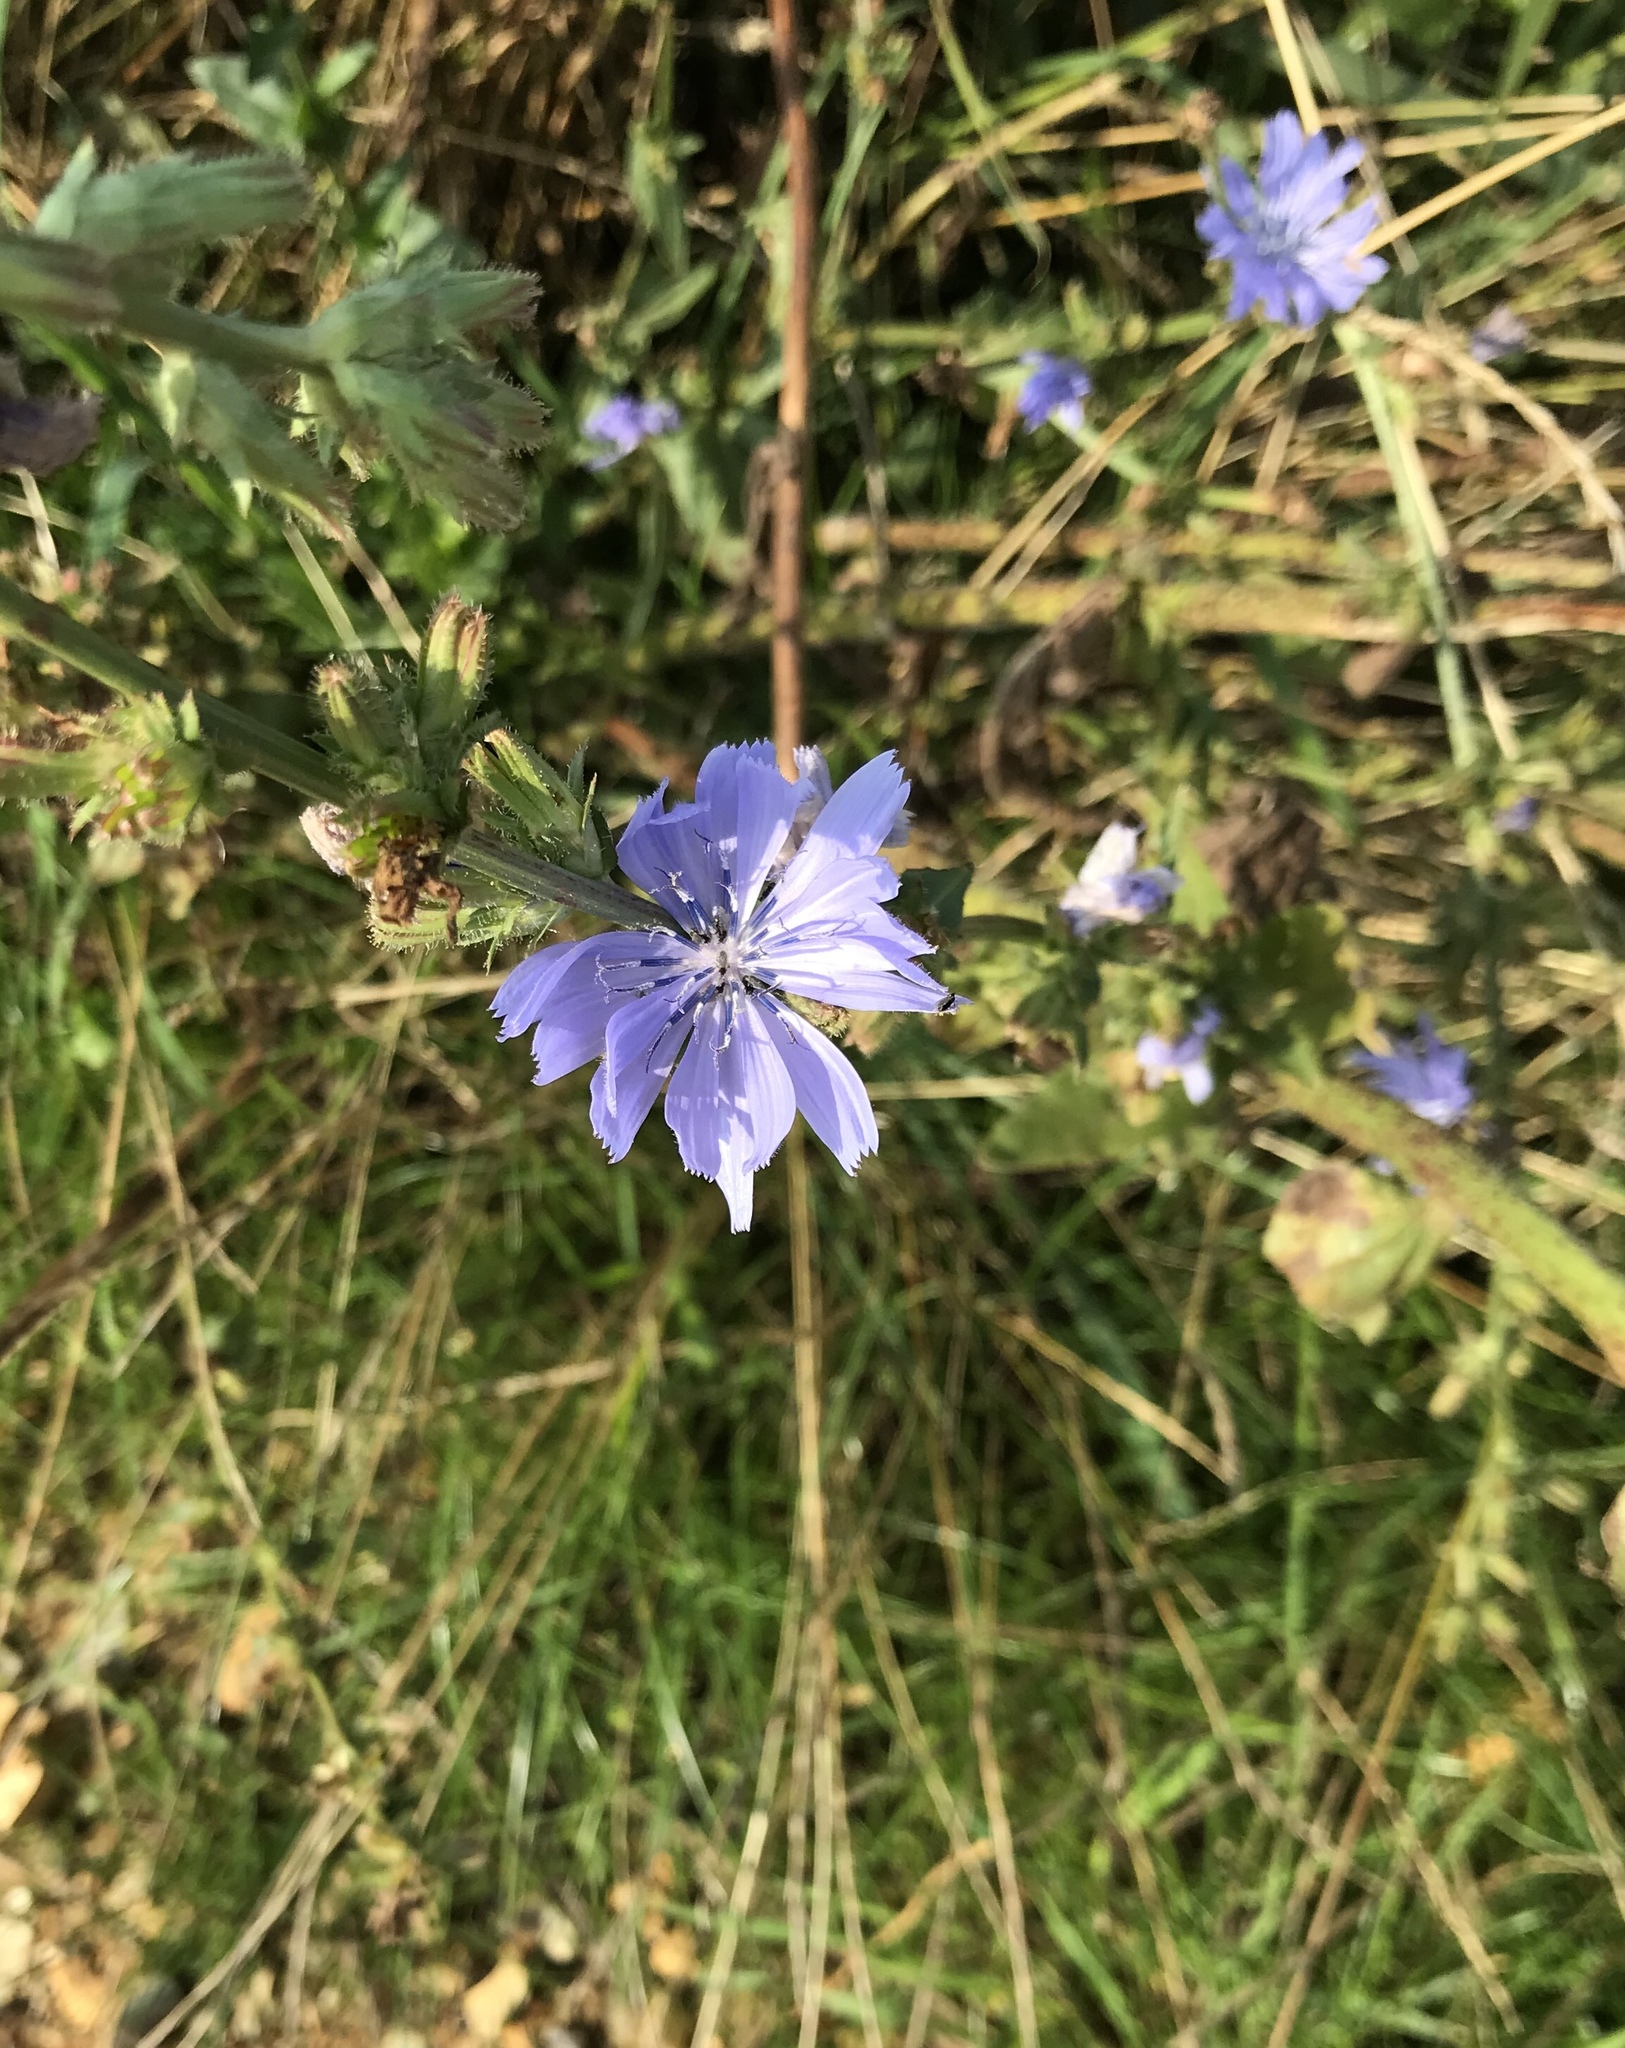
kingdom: Plantae
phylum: Tracheophyta
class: Magnoliopsida
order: Asterales
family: Asteraceae
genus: Cichorium
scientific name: Cichorium intybus
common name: Chicory
